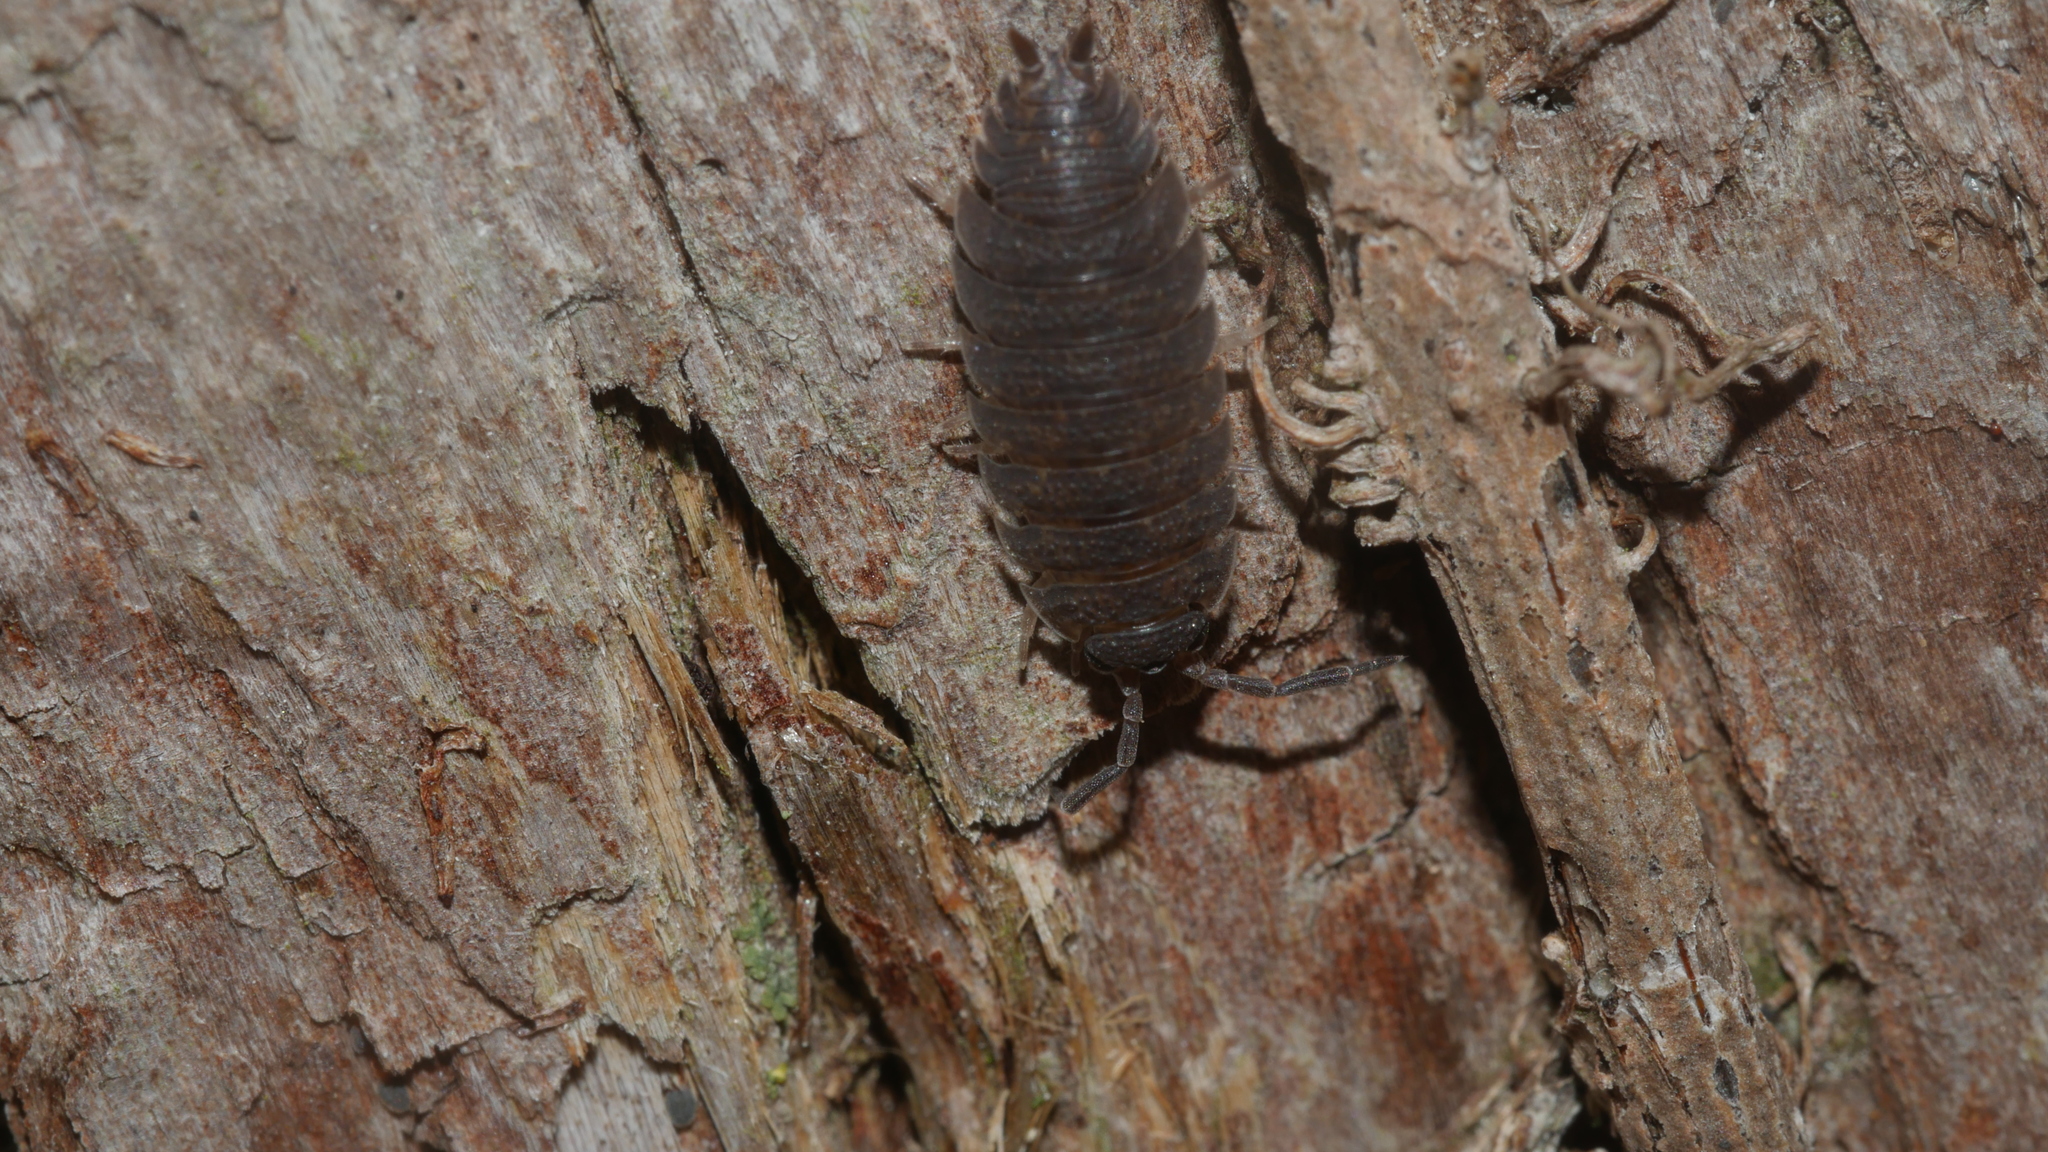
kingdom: Animalia
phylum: Arthropoda
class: Malacostraca
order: Isopoda
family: Porcellionidae
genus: Porcellio
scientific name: Porcellio scaber
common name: Common rough woodlouse
